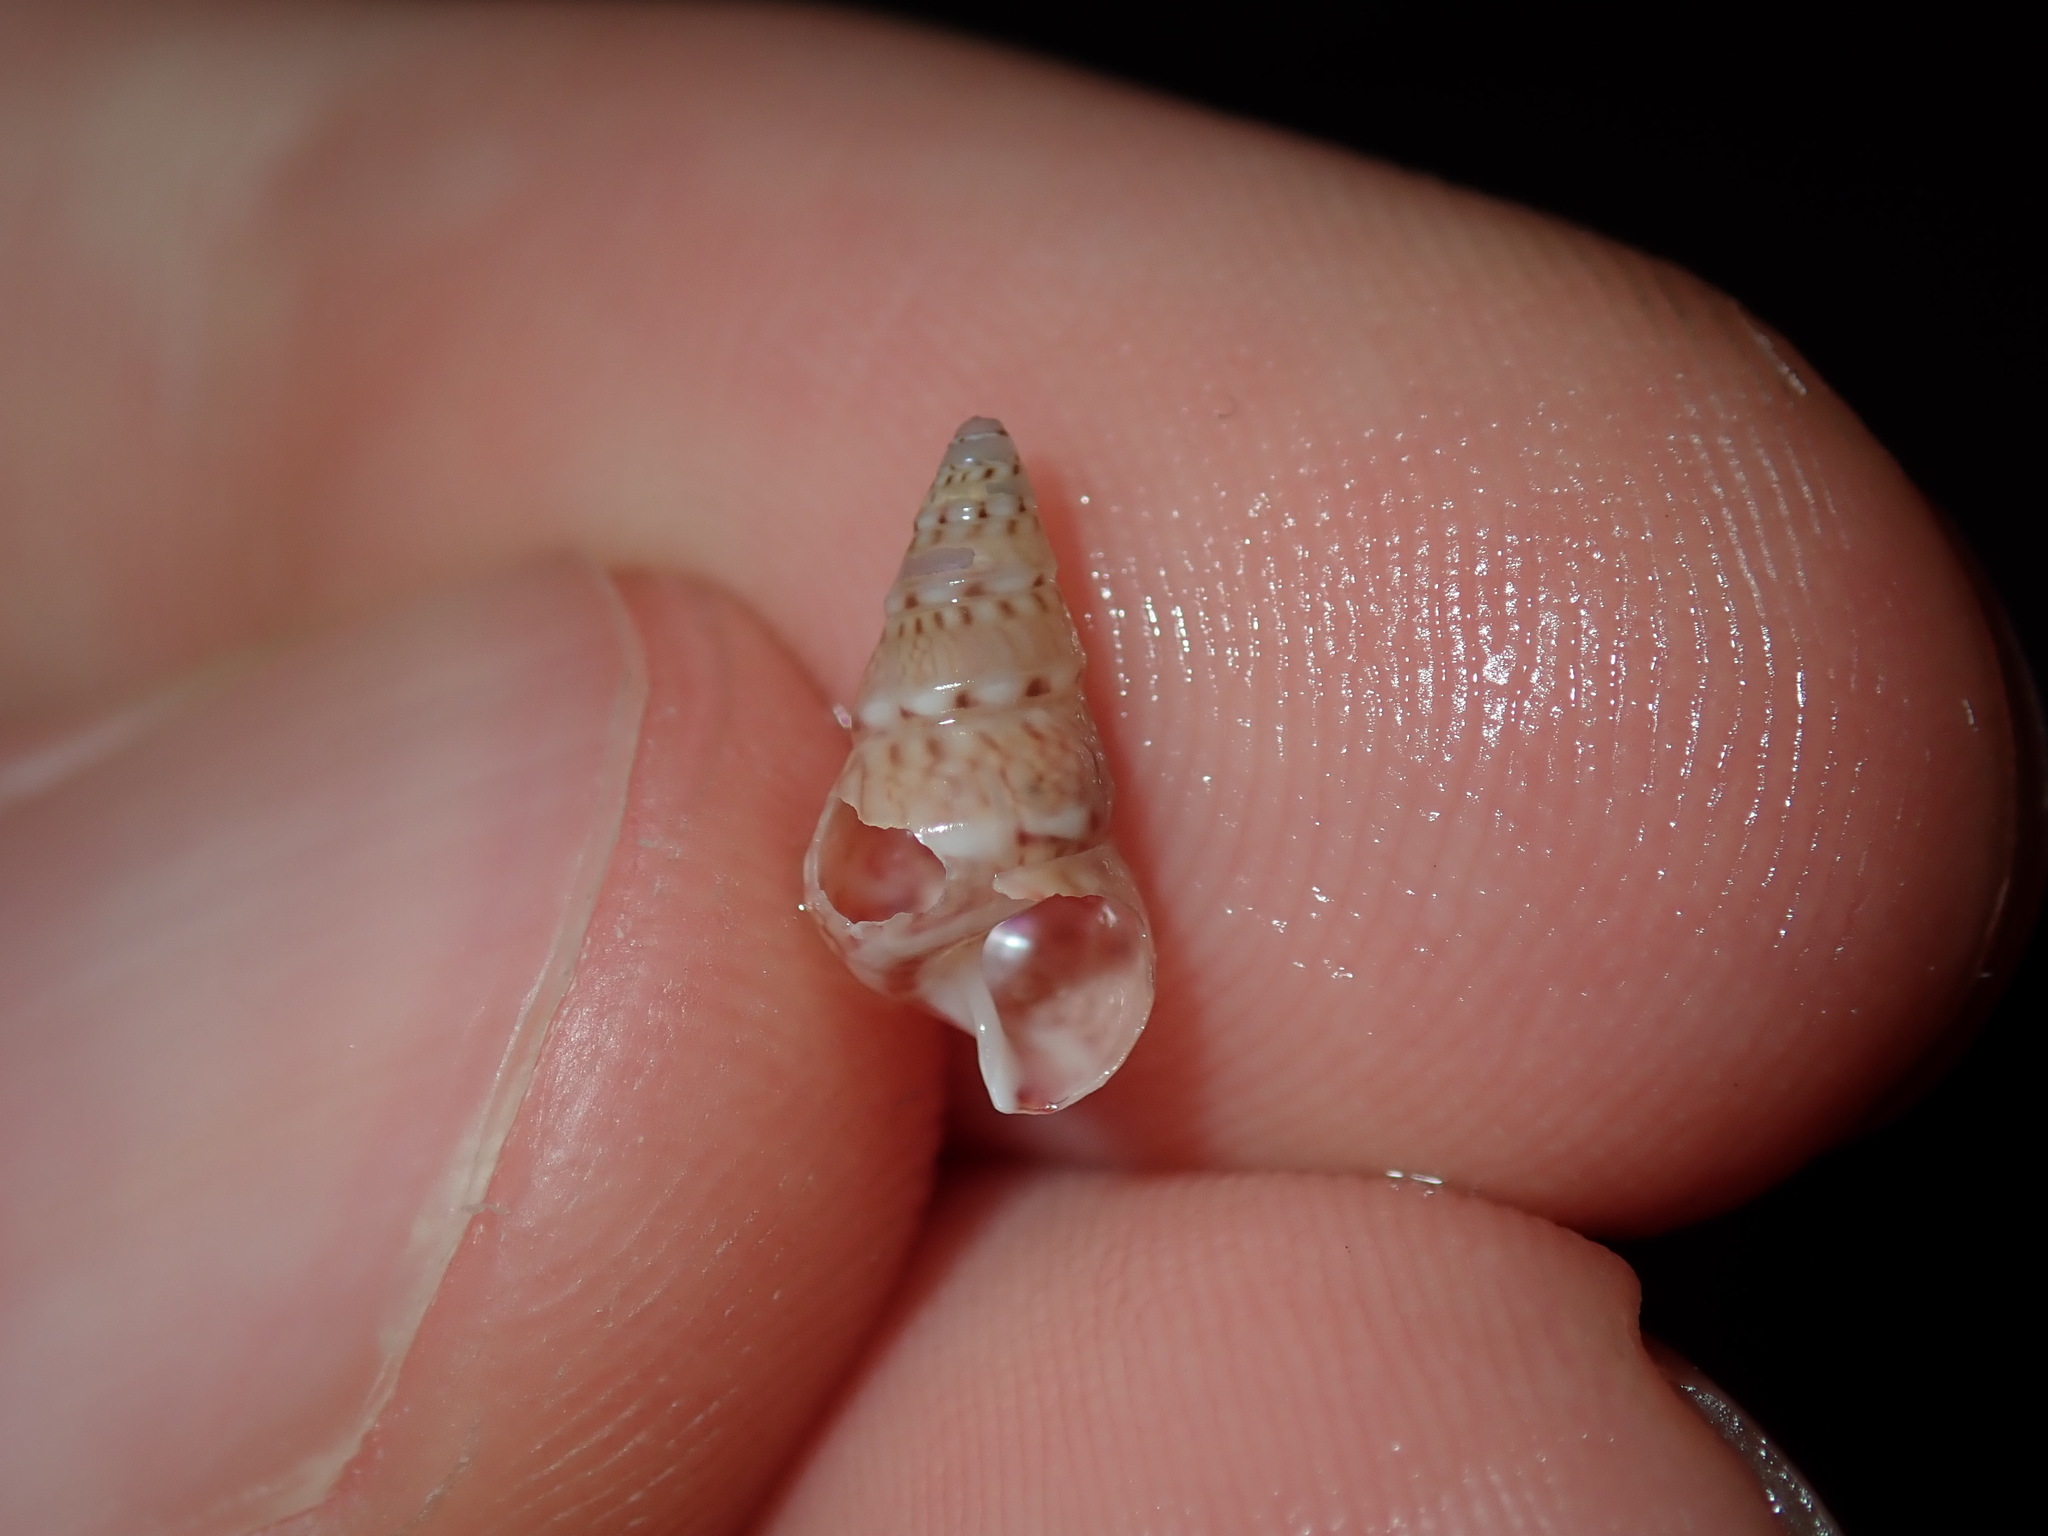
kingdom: Animalia
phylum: Mollusca
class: Gastropoda
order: Trochida
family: Trochidae
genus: Leiopyrga
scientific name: Leiopyrga lineolaris
